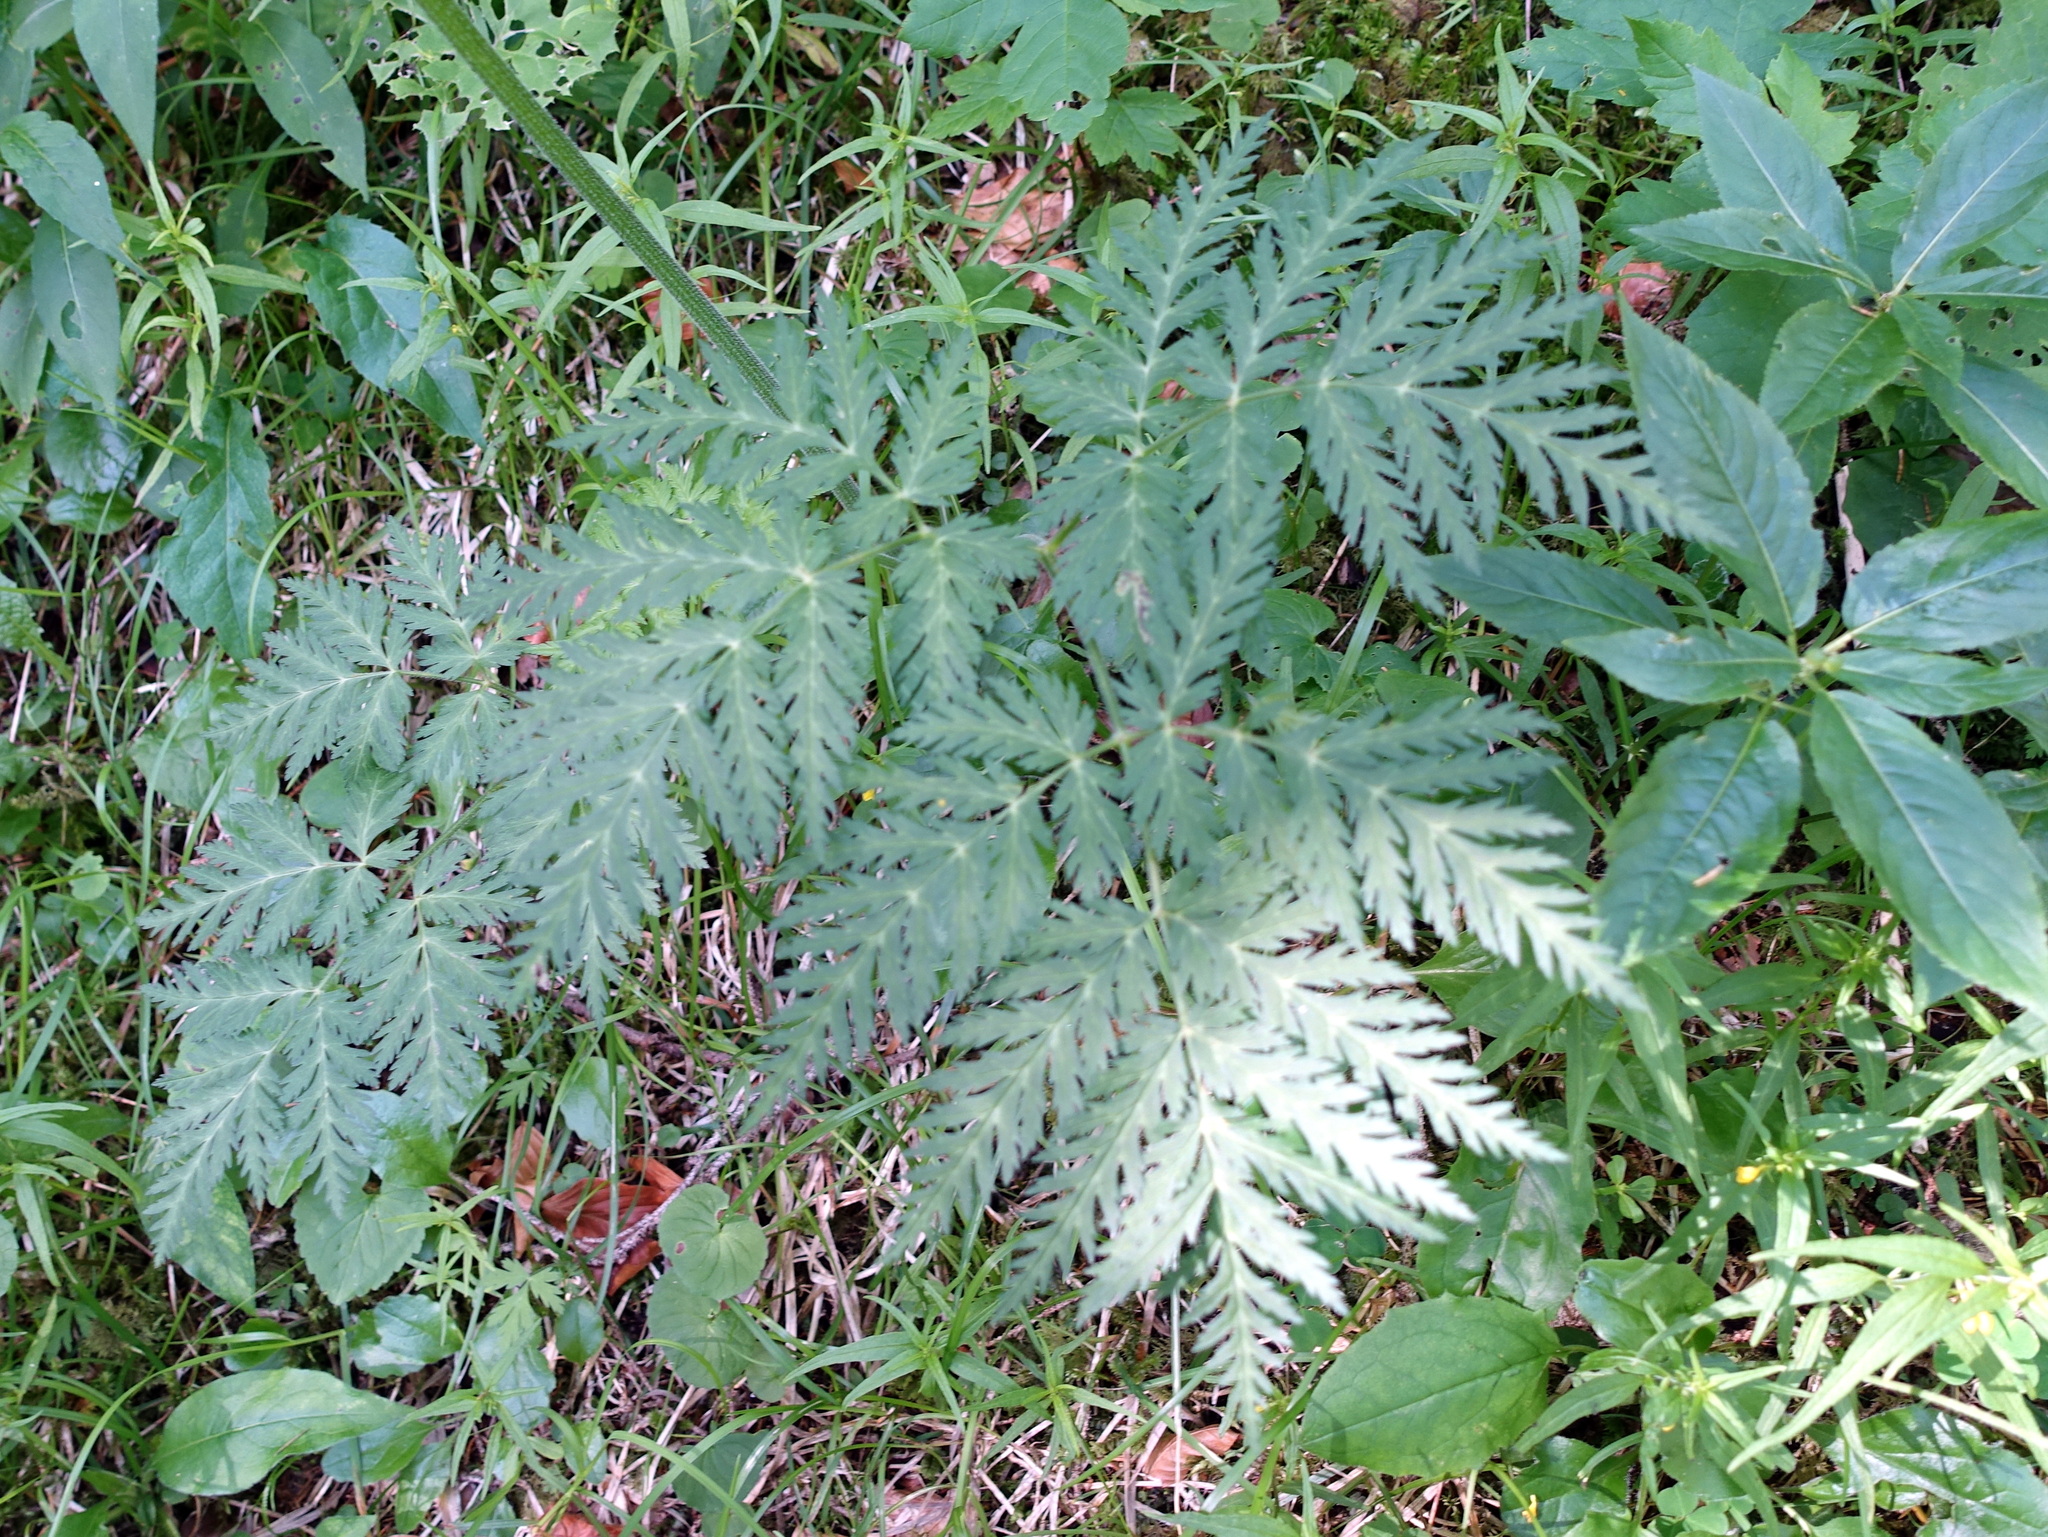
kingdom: Plantae
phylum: Tracheophyta
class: Magnoliopsida
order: Apiales
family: Apiaceae
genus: Chaerophyllum
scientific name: Chaerophyllum villarsii
